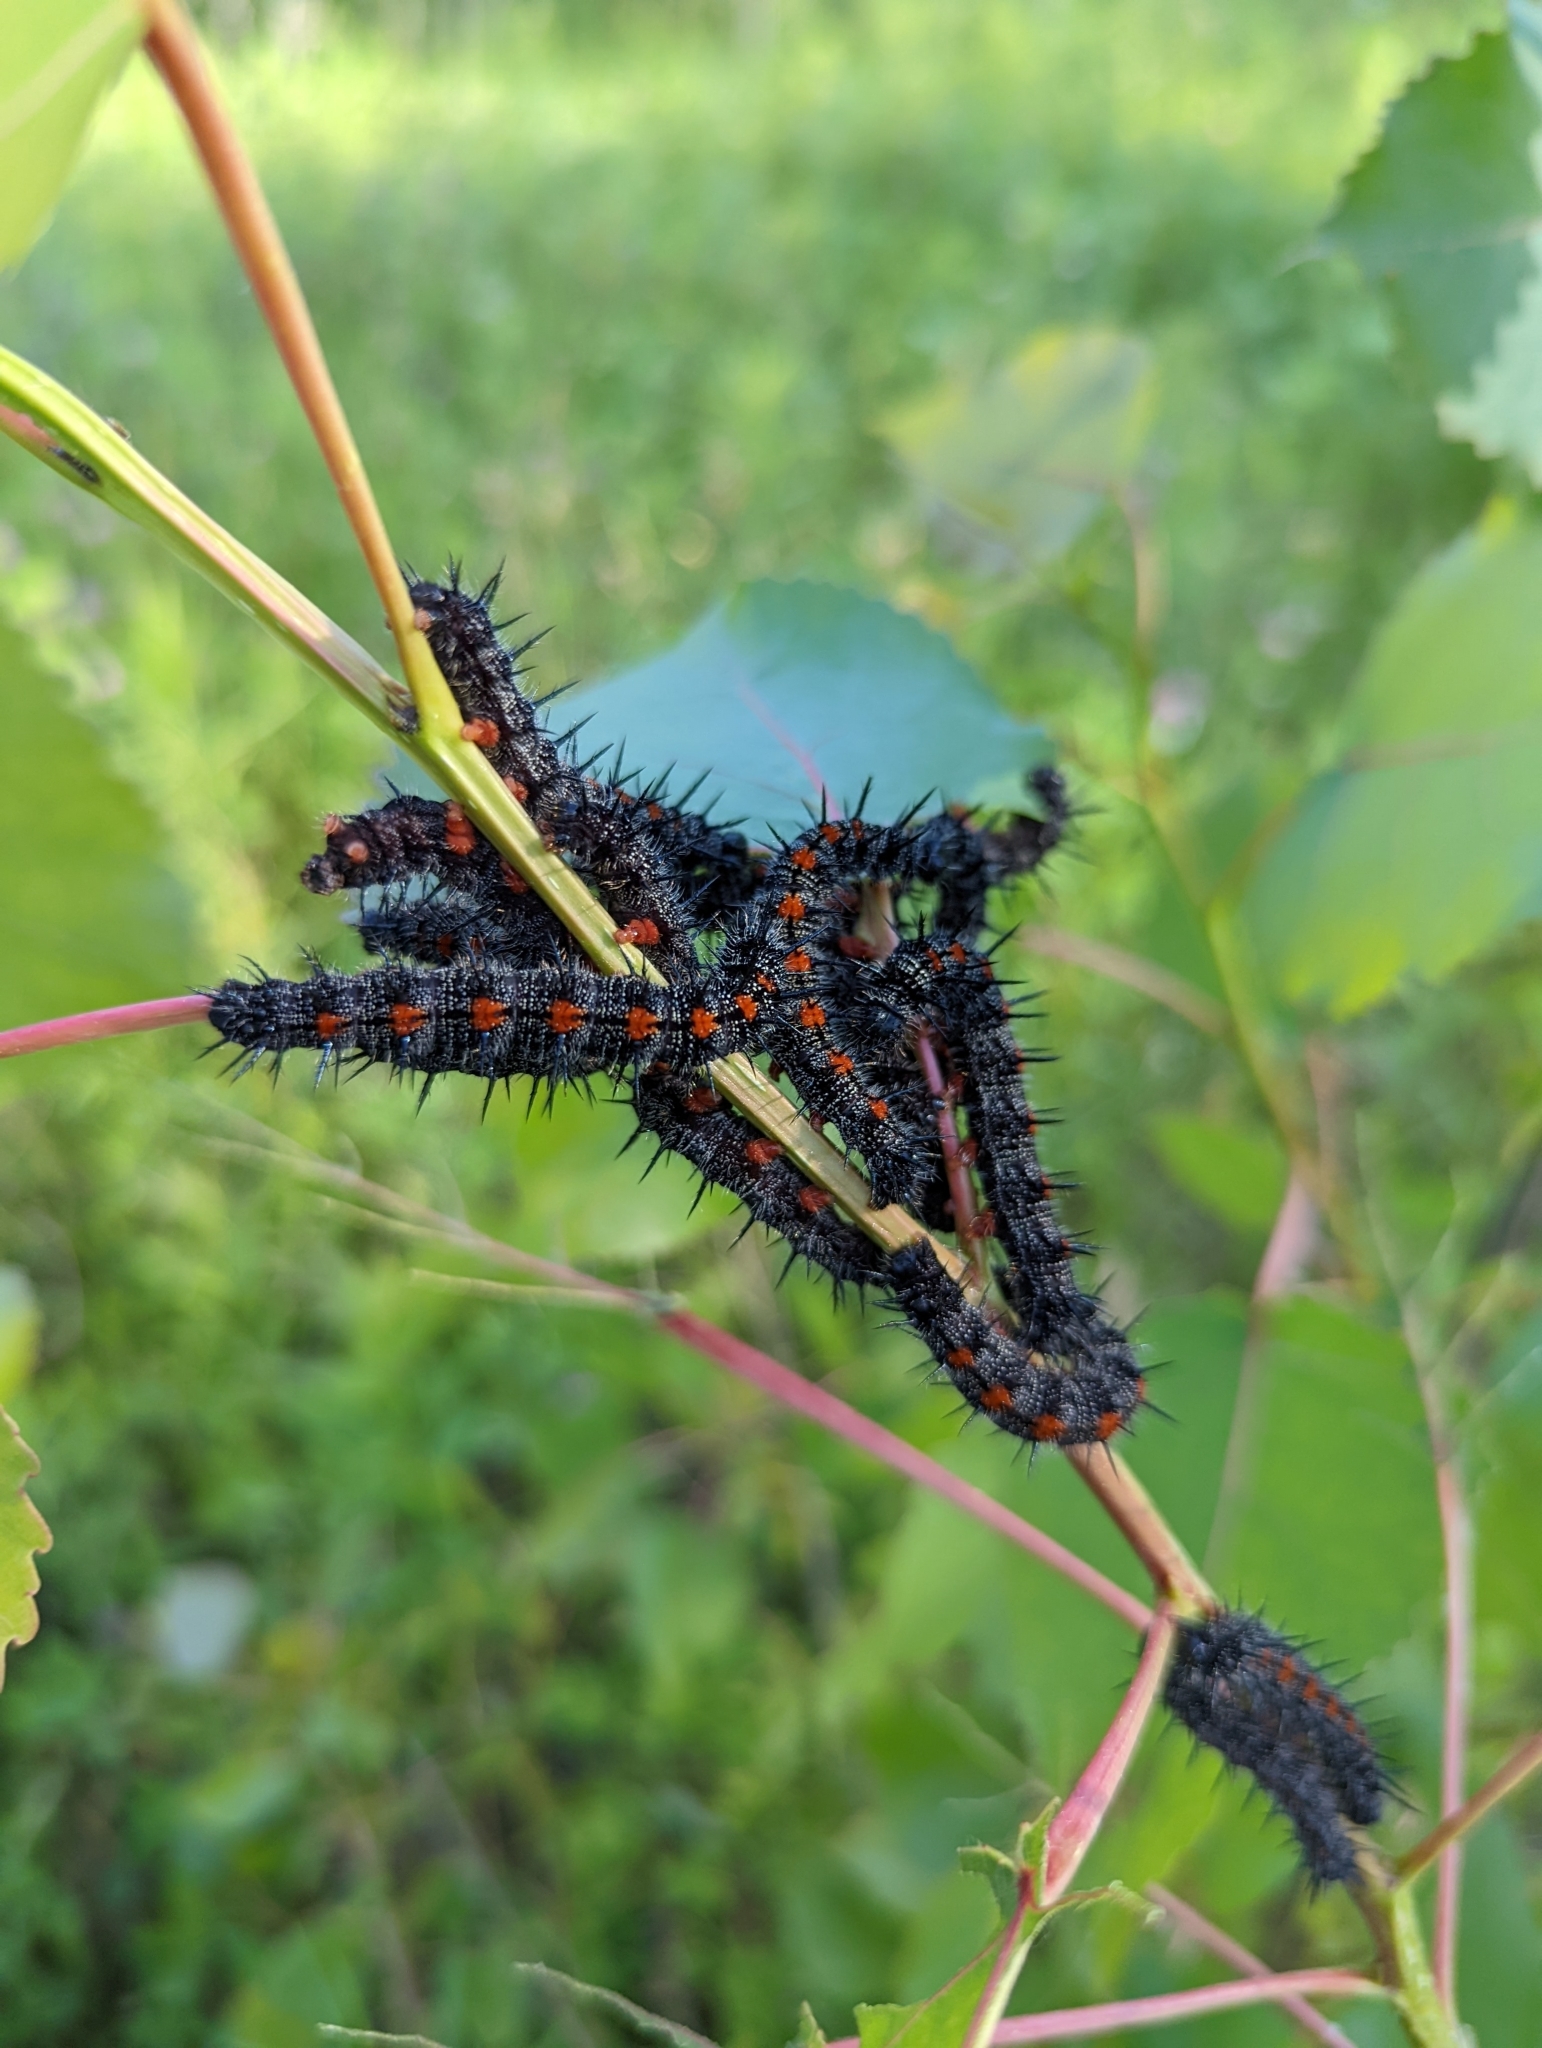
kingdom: Animalia
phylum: Arthropoda
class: Insecta
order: Lepidoptera
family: Nymphalidae
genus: Nymphalis
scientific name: Nymphalis antiopa
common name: Camberwell beauty
